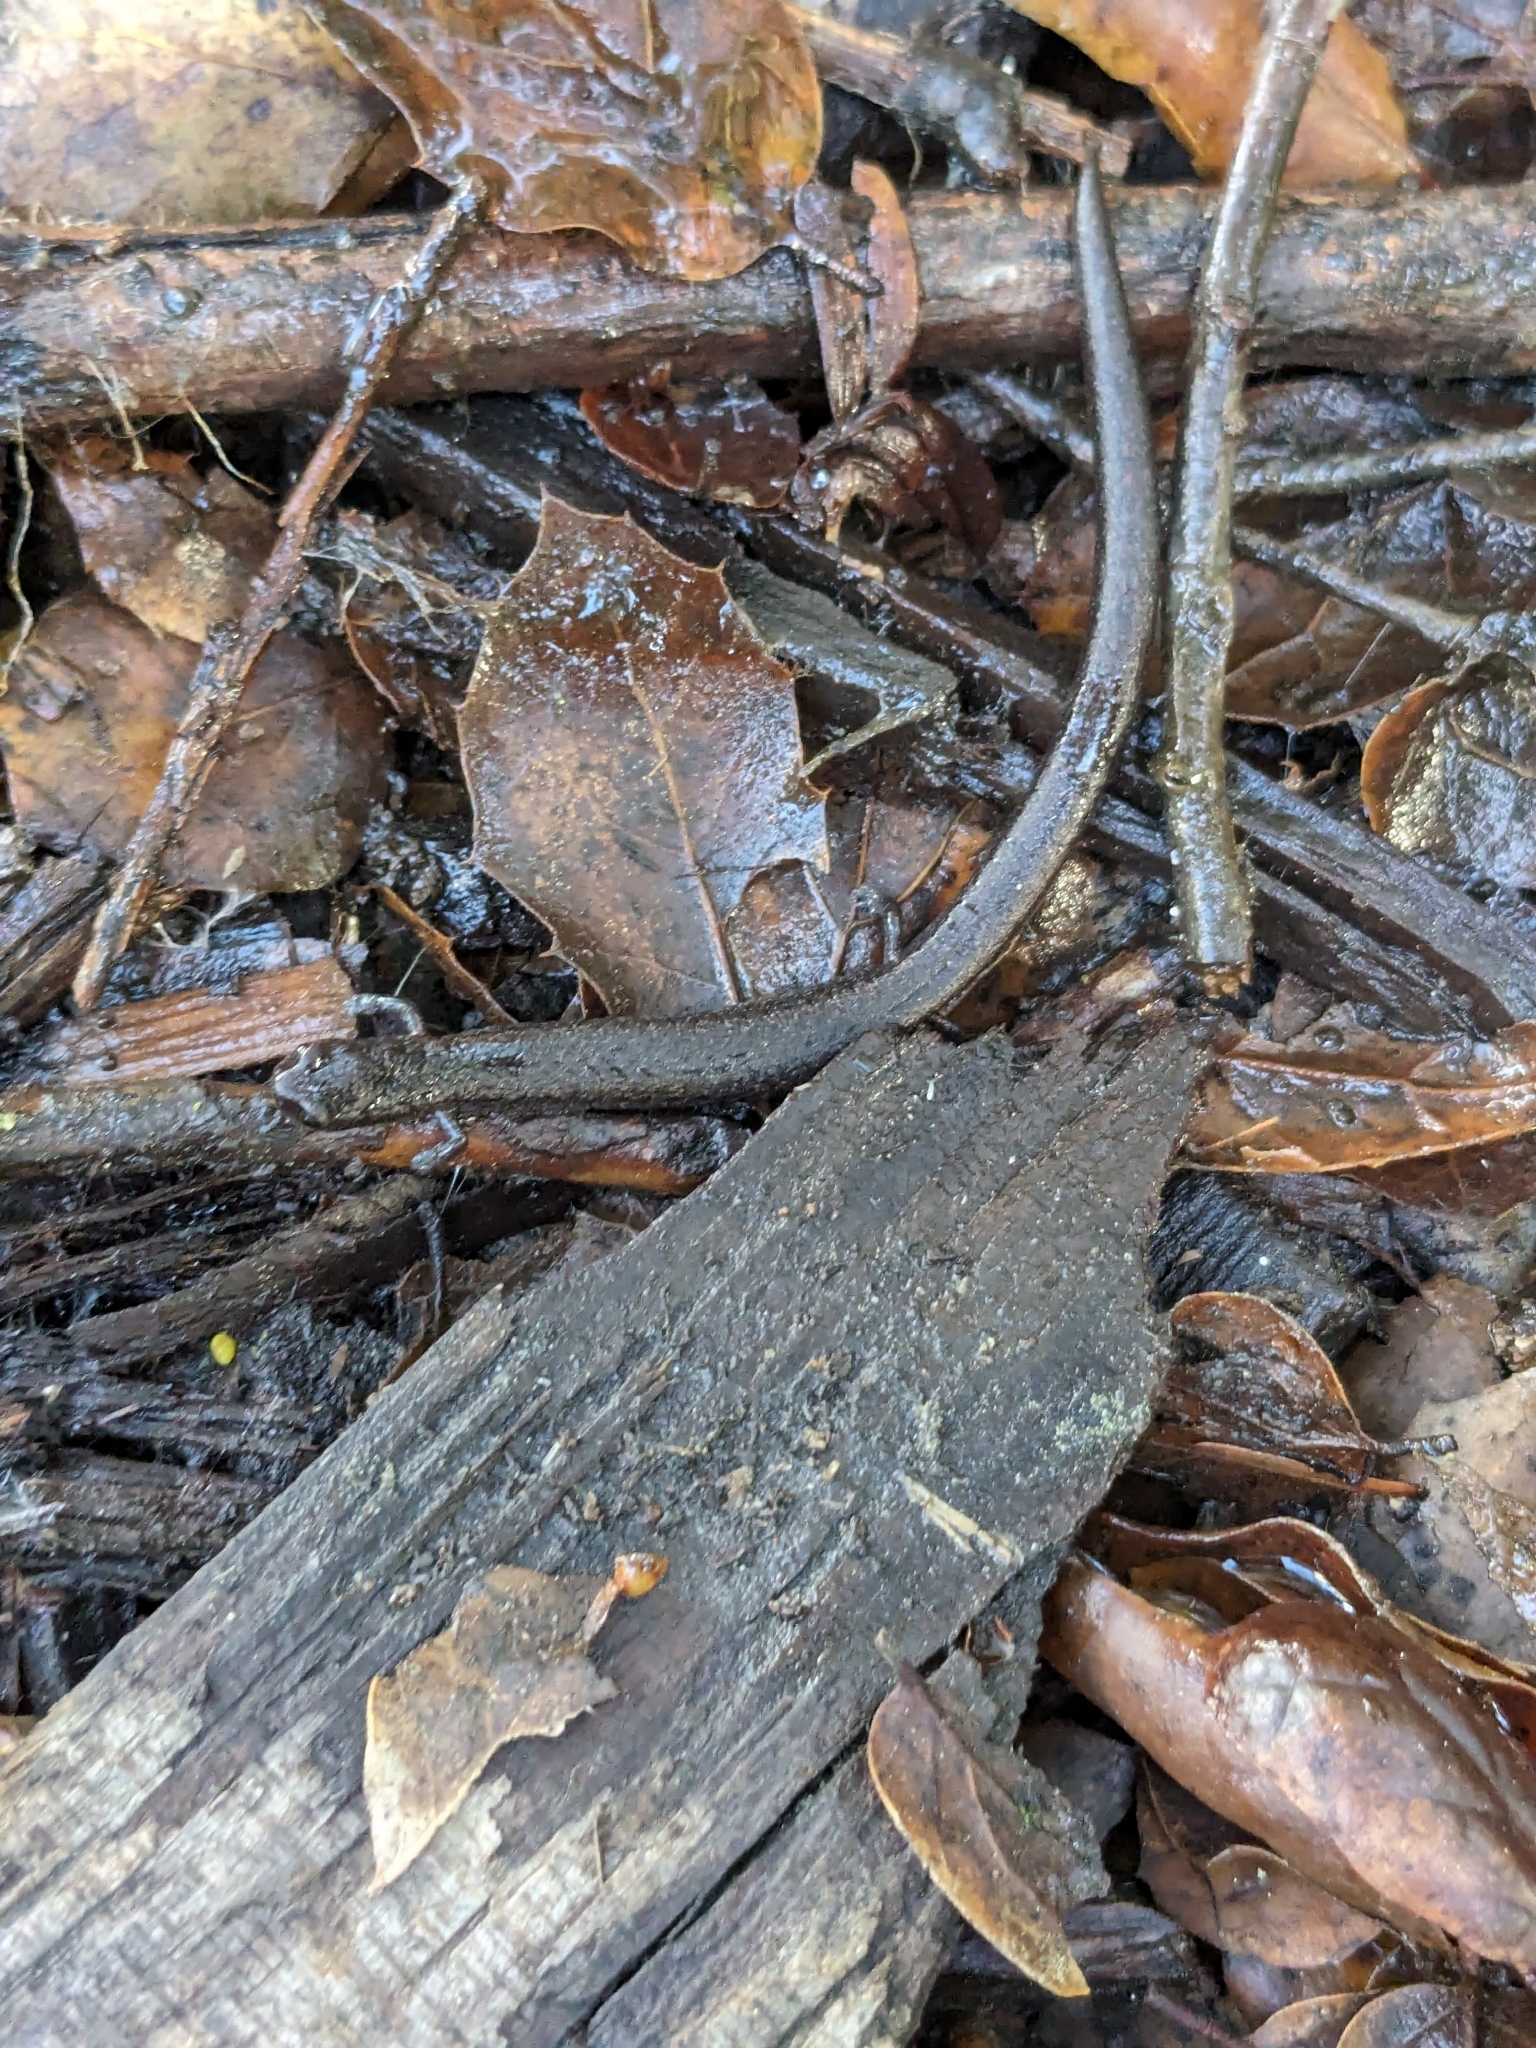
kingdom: Animalia
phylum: Chordata
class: Amphibia
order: Caudata
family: Plethodontidae
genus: Batrachoseps
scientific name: Batrachoseps attenuatus
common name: California slender salamander
